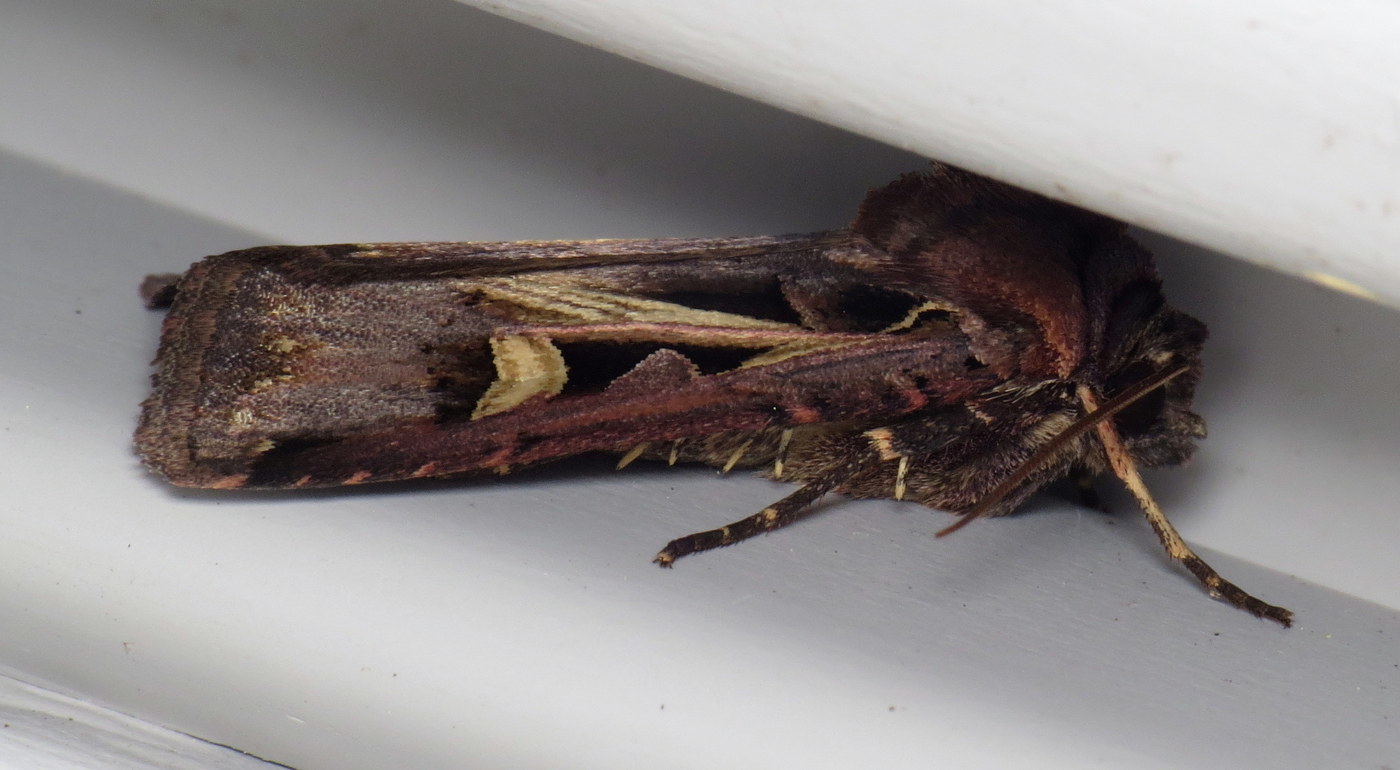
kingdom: Animalia
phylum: Arthropoda
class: Insecta
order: Lepidoptera
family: Noctuidae
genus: Feltia
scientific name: Feltia herilis
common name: Master's dart
